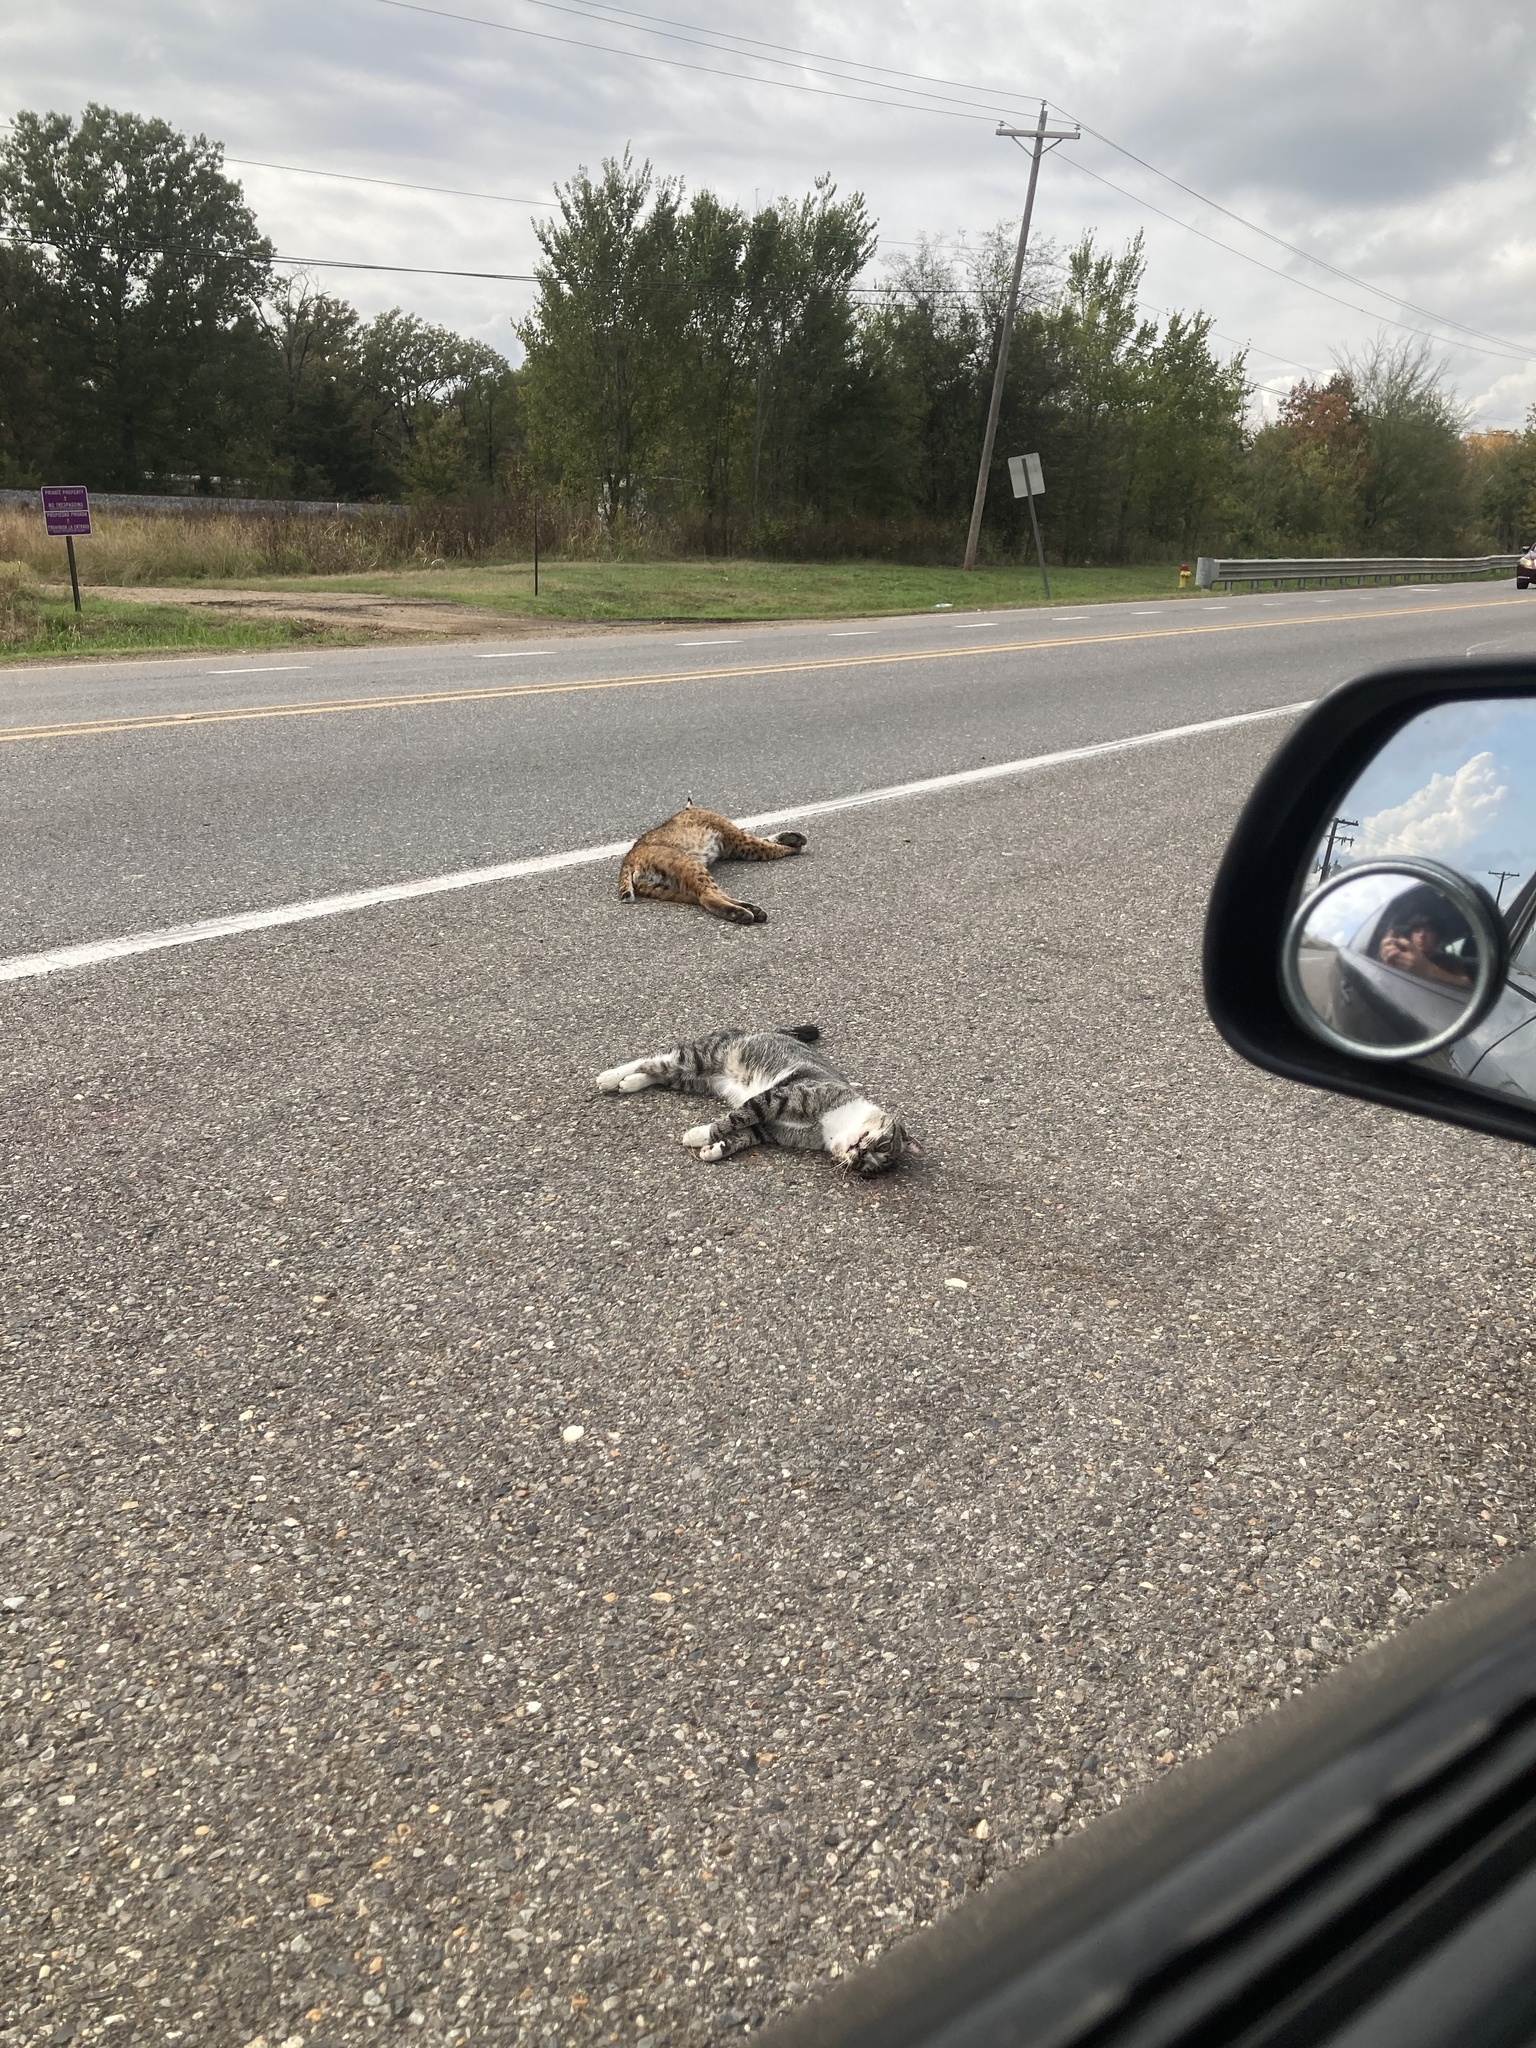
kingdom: Animalia
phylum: Chordata
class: Mammalia
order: Carnivora
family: Felidae
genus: Lynx
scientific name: Lynx rufus
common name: Bobcat
